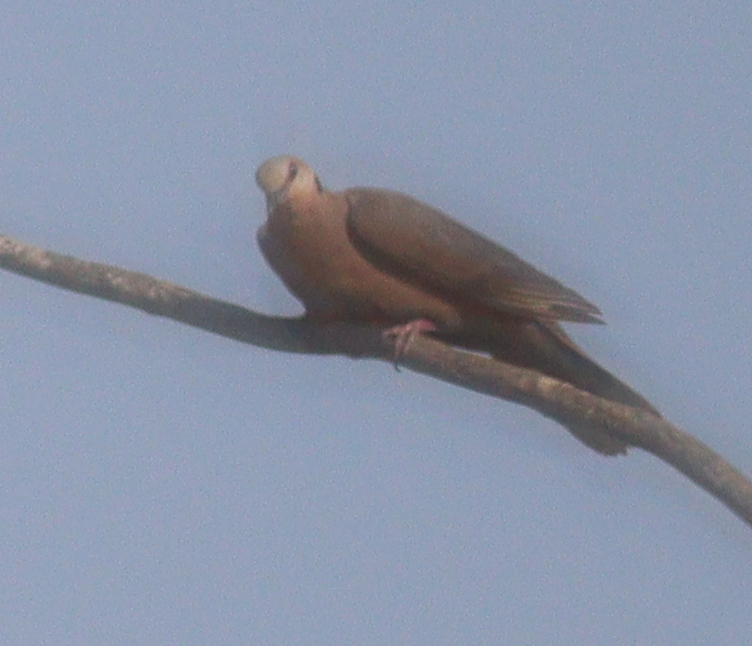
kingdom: Animalia
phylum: Chordata
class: Aves
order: Columbiformes
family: Columbidae
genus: Streptopelia
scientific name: Streptopelia semitorquata
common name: Red-eyed dove
